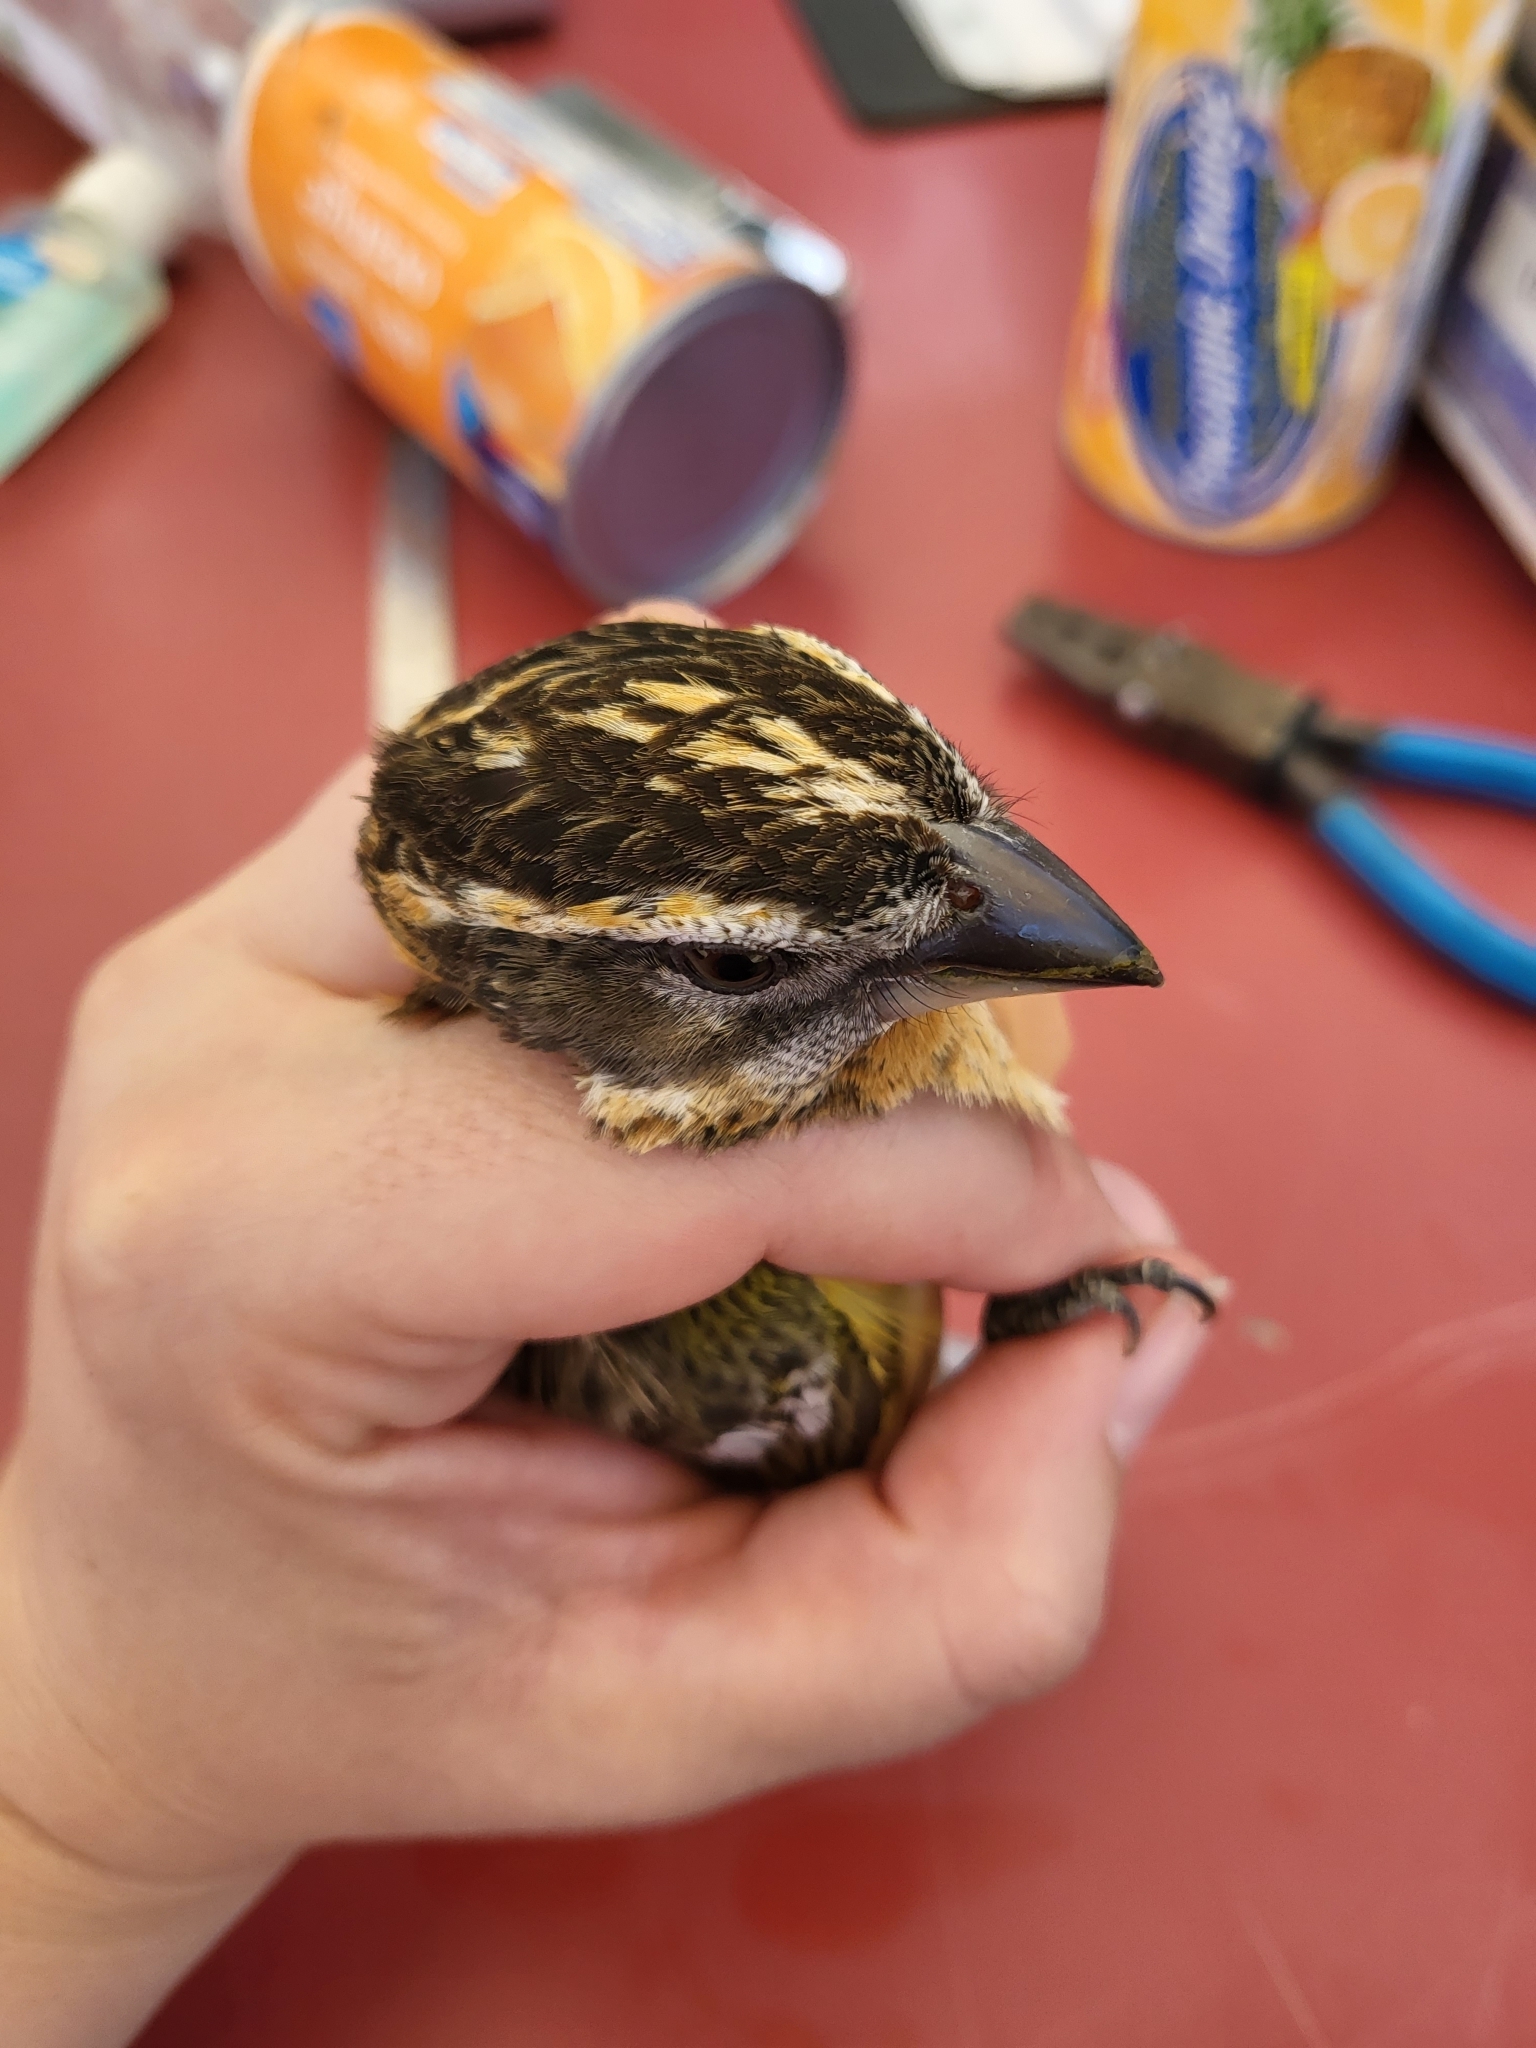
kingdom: Animalia
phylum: Chordata
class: Aves
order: Passeriformes
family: Cardinalidae
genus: Pheucticus
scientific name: Pheucticus melanocephalus
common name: Black-headed grosbeak
